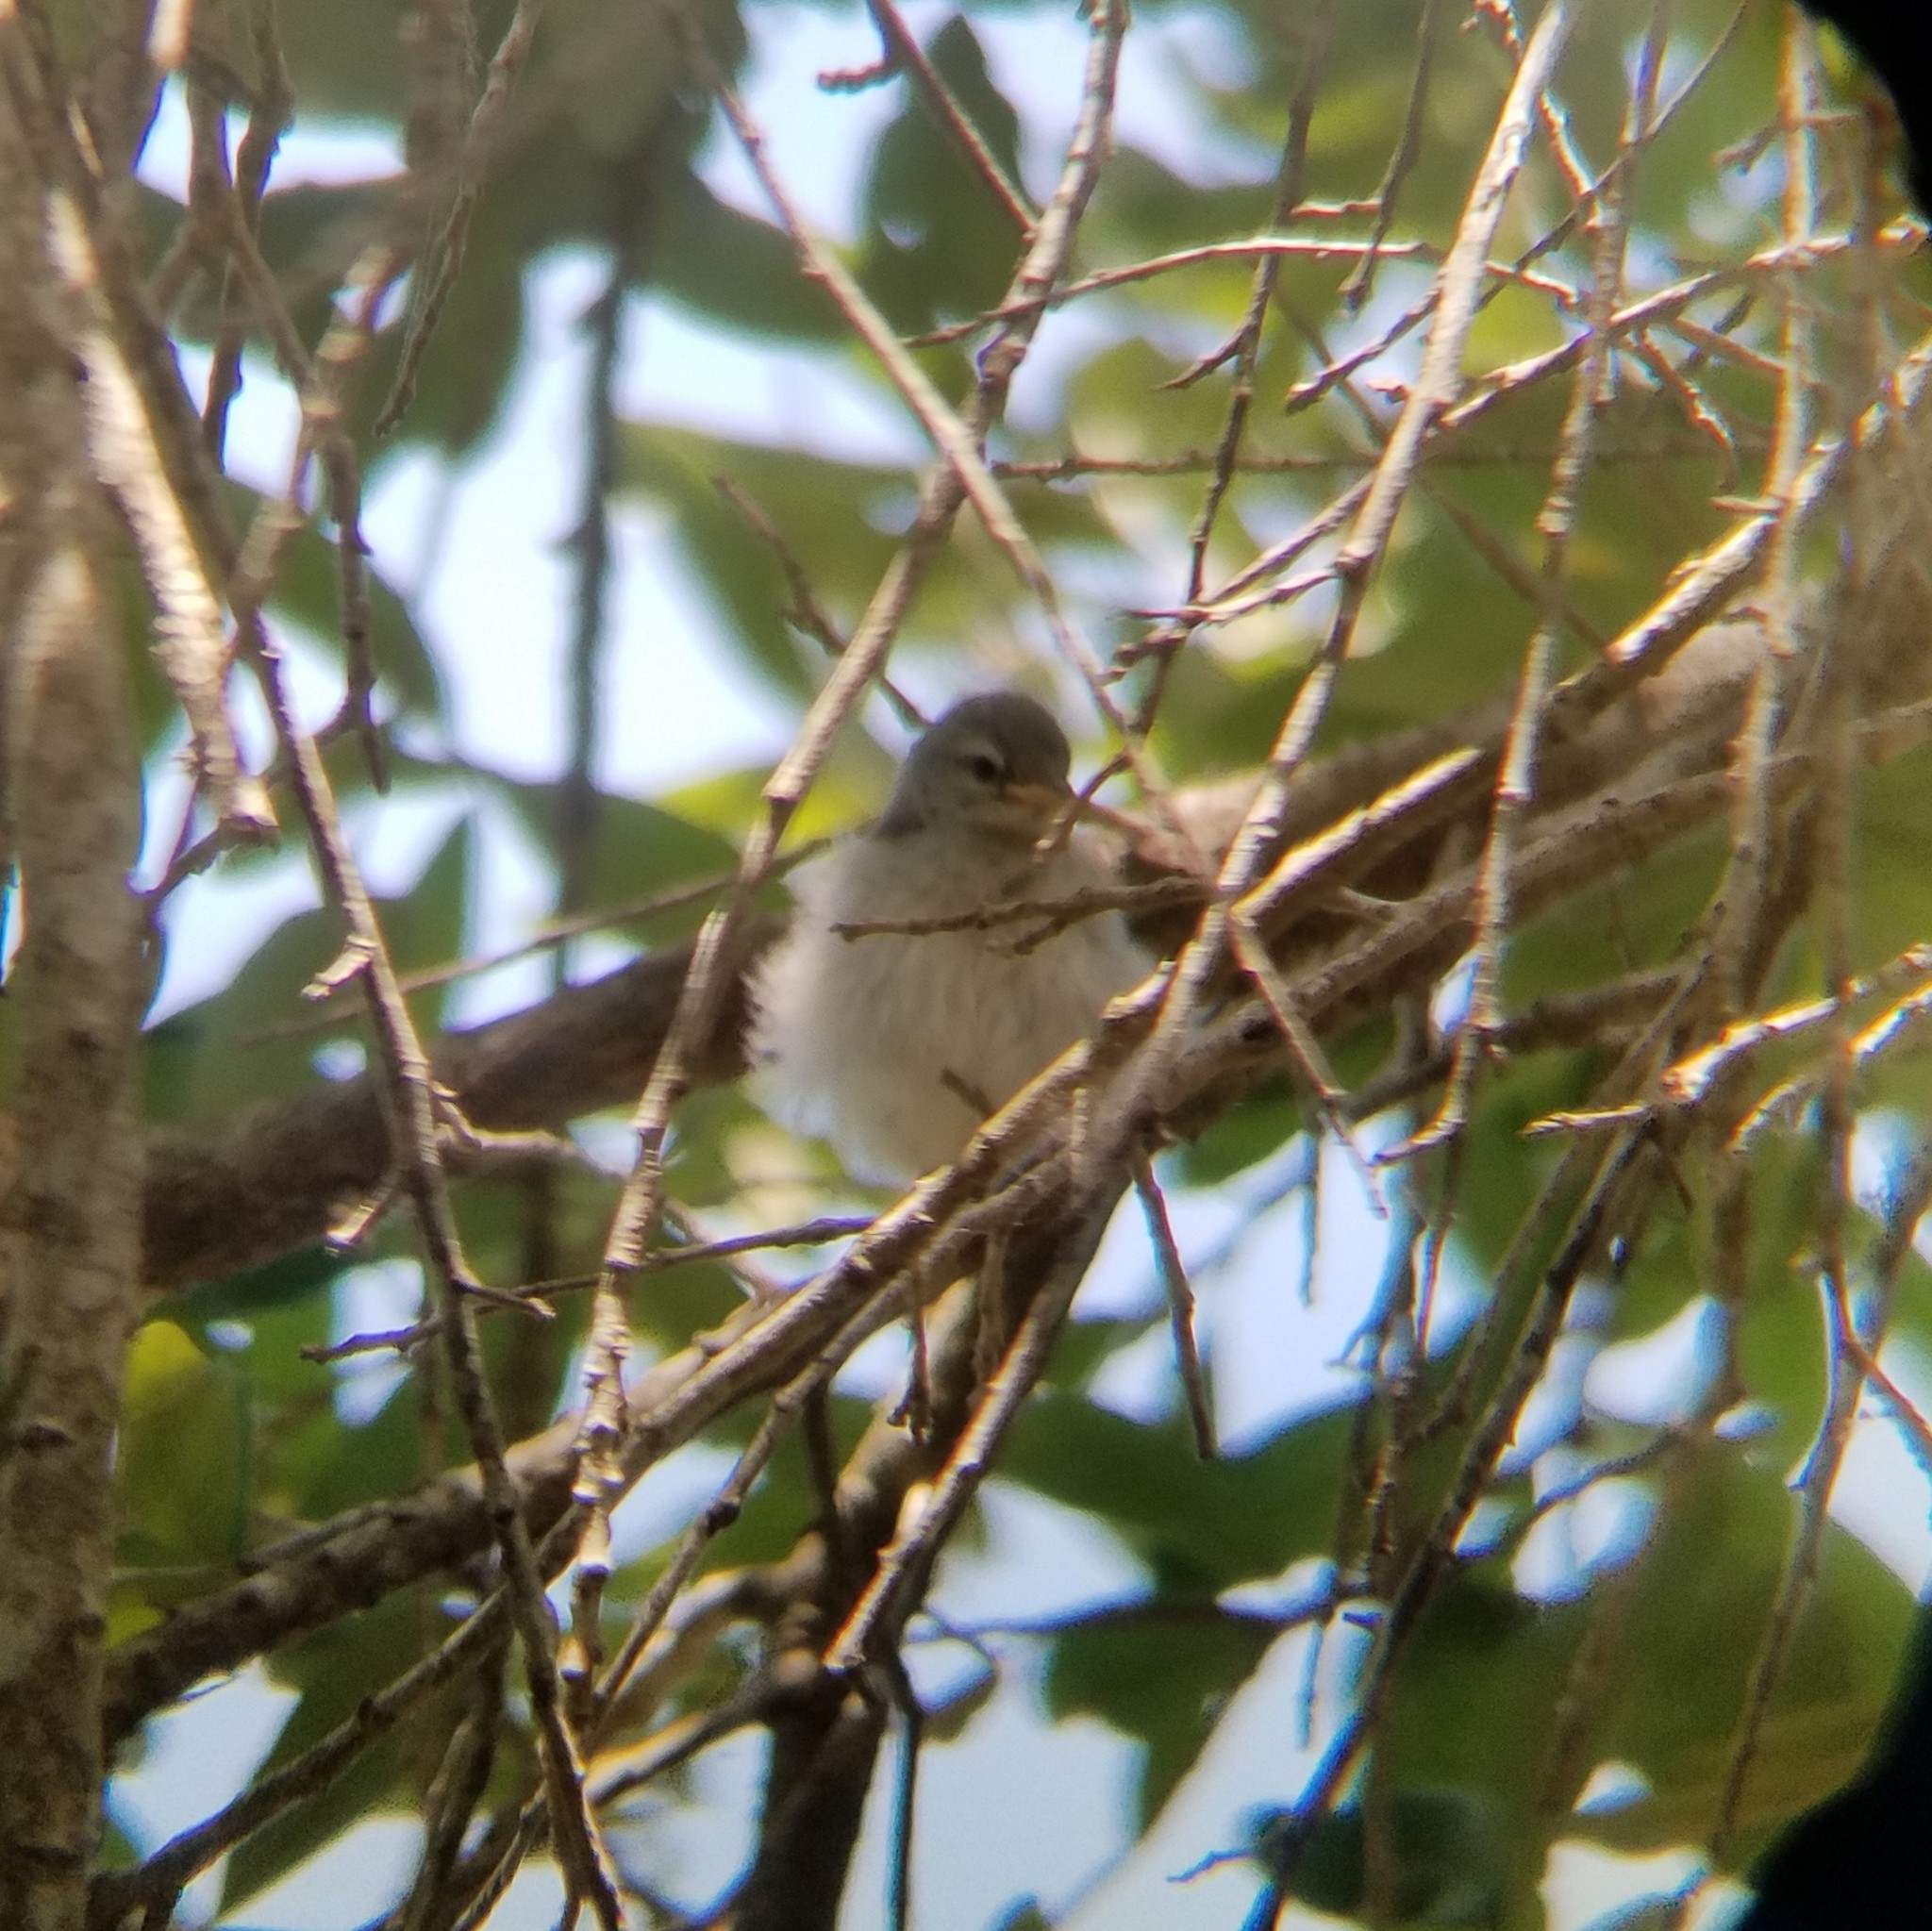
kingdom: Animalia
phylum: Chordata
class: Aves
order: Passeriformes
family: Parulidae
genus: Setophaga
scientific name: Setophaga americana
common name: Northern parula
